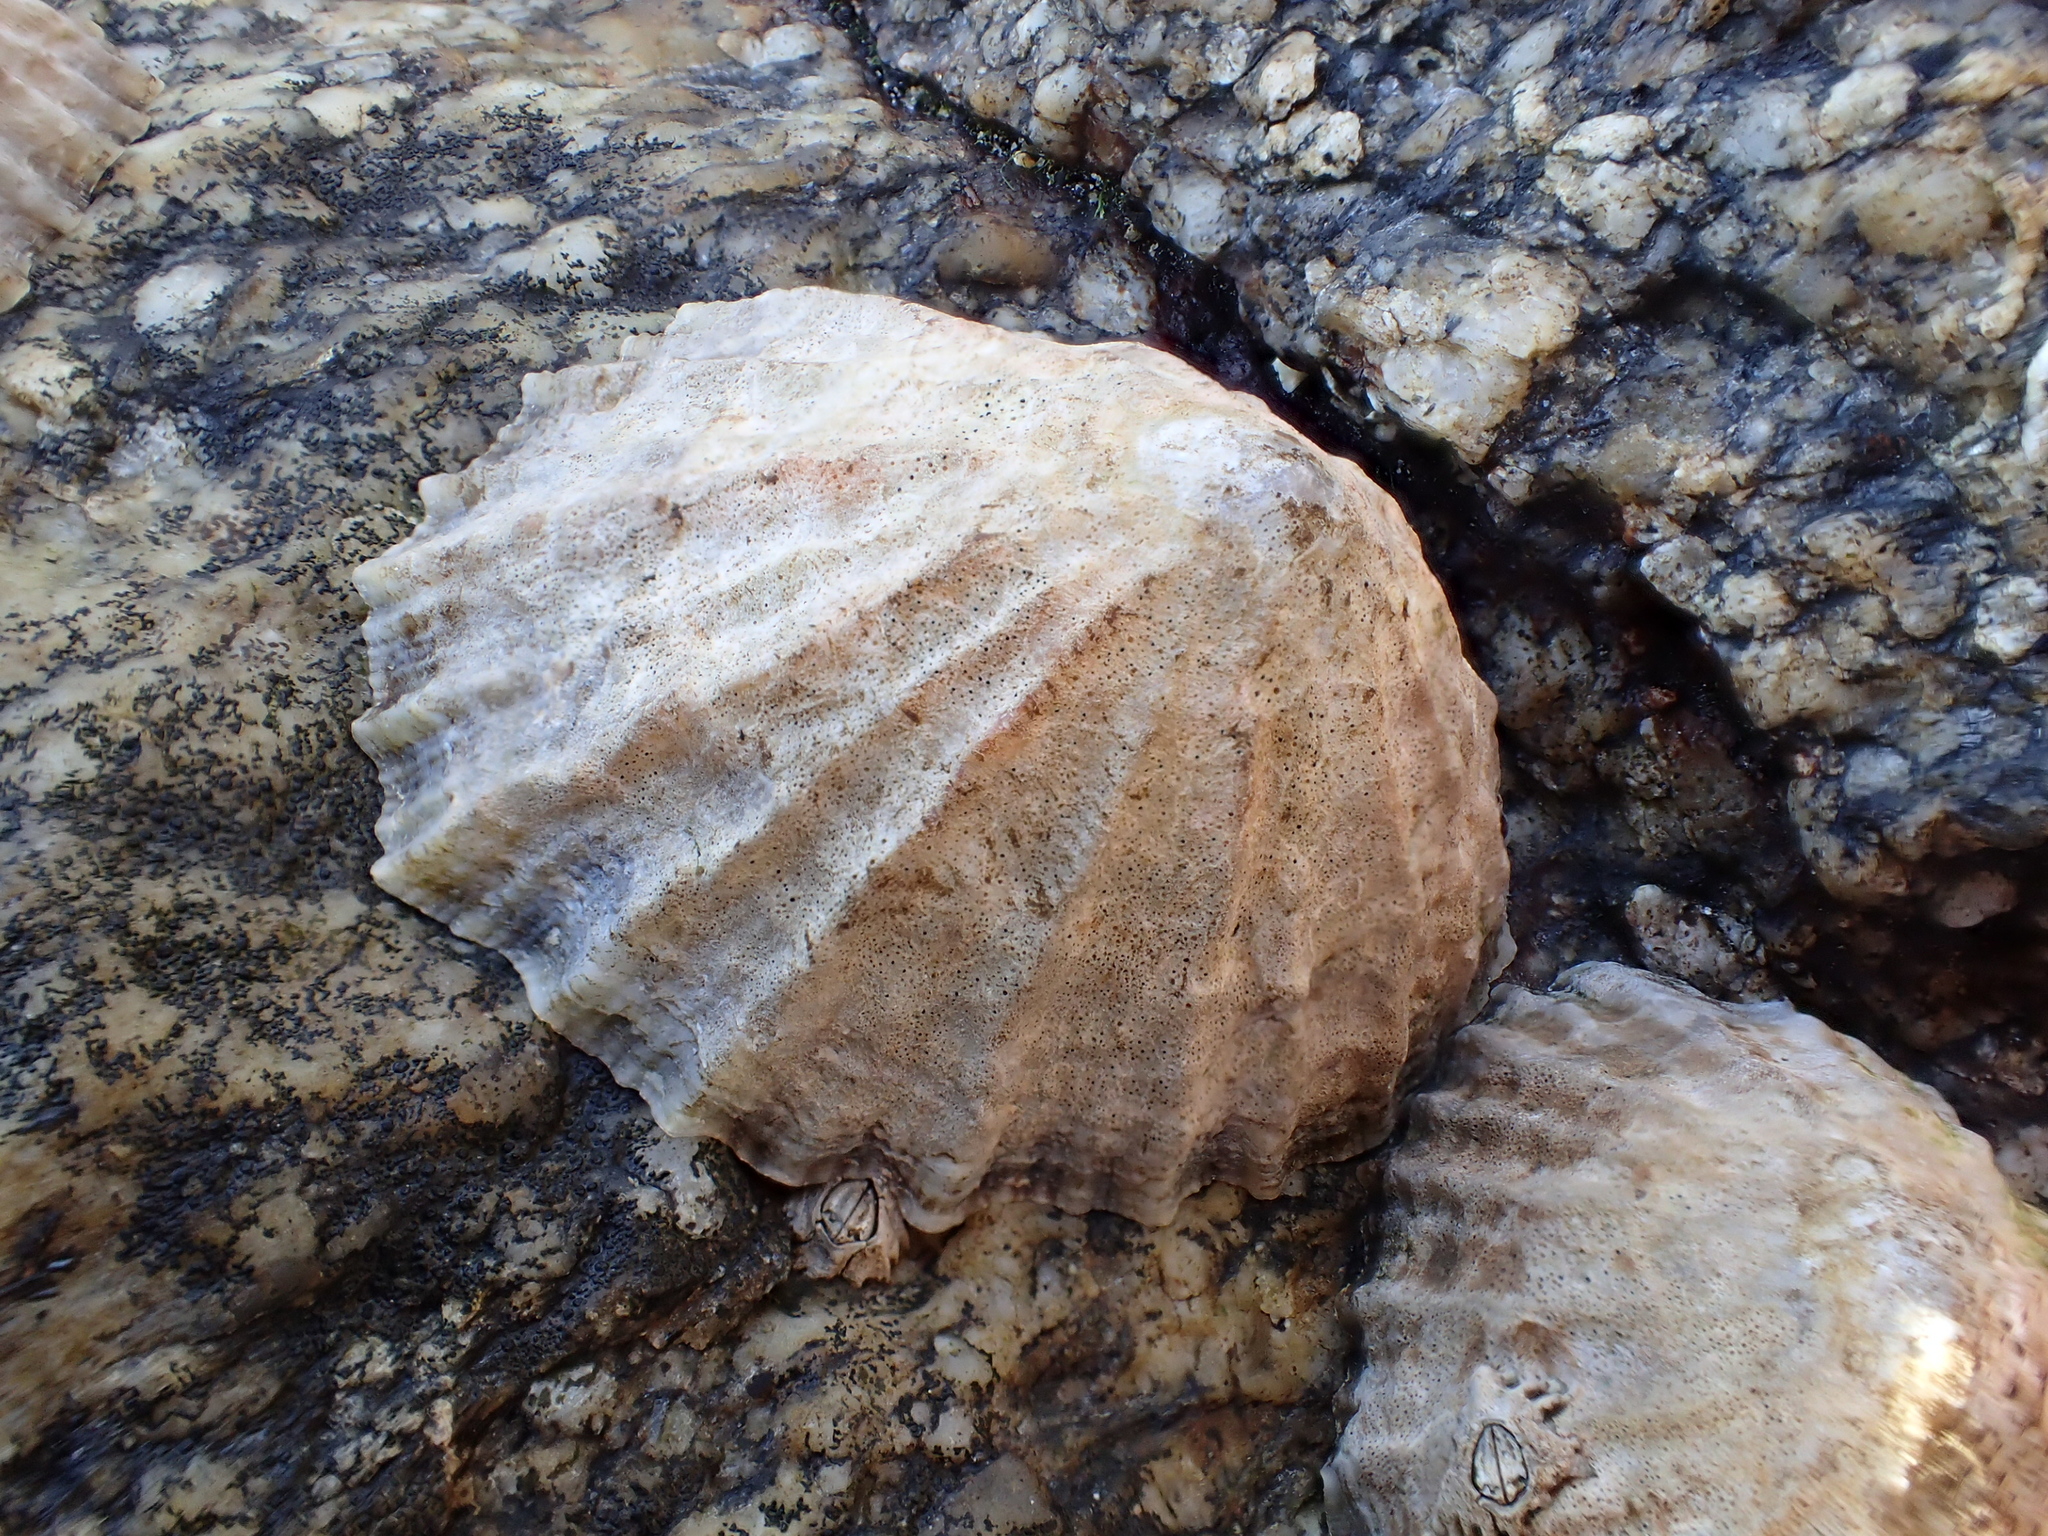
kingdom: Animalia
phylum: Mollusca
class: Gastropoda
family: Patellidae
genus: Patella
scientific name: Patella vulgata
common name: Common limpet
